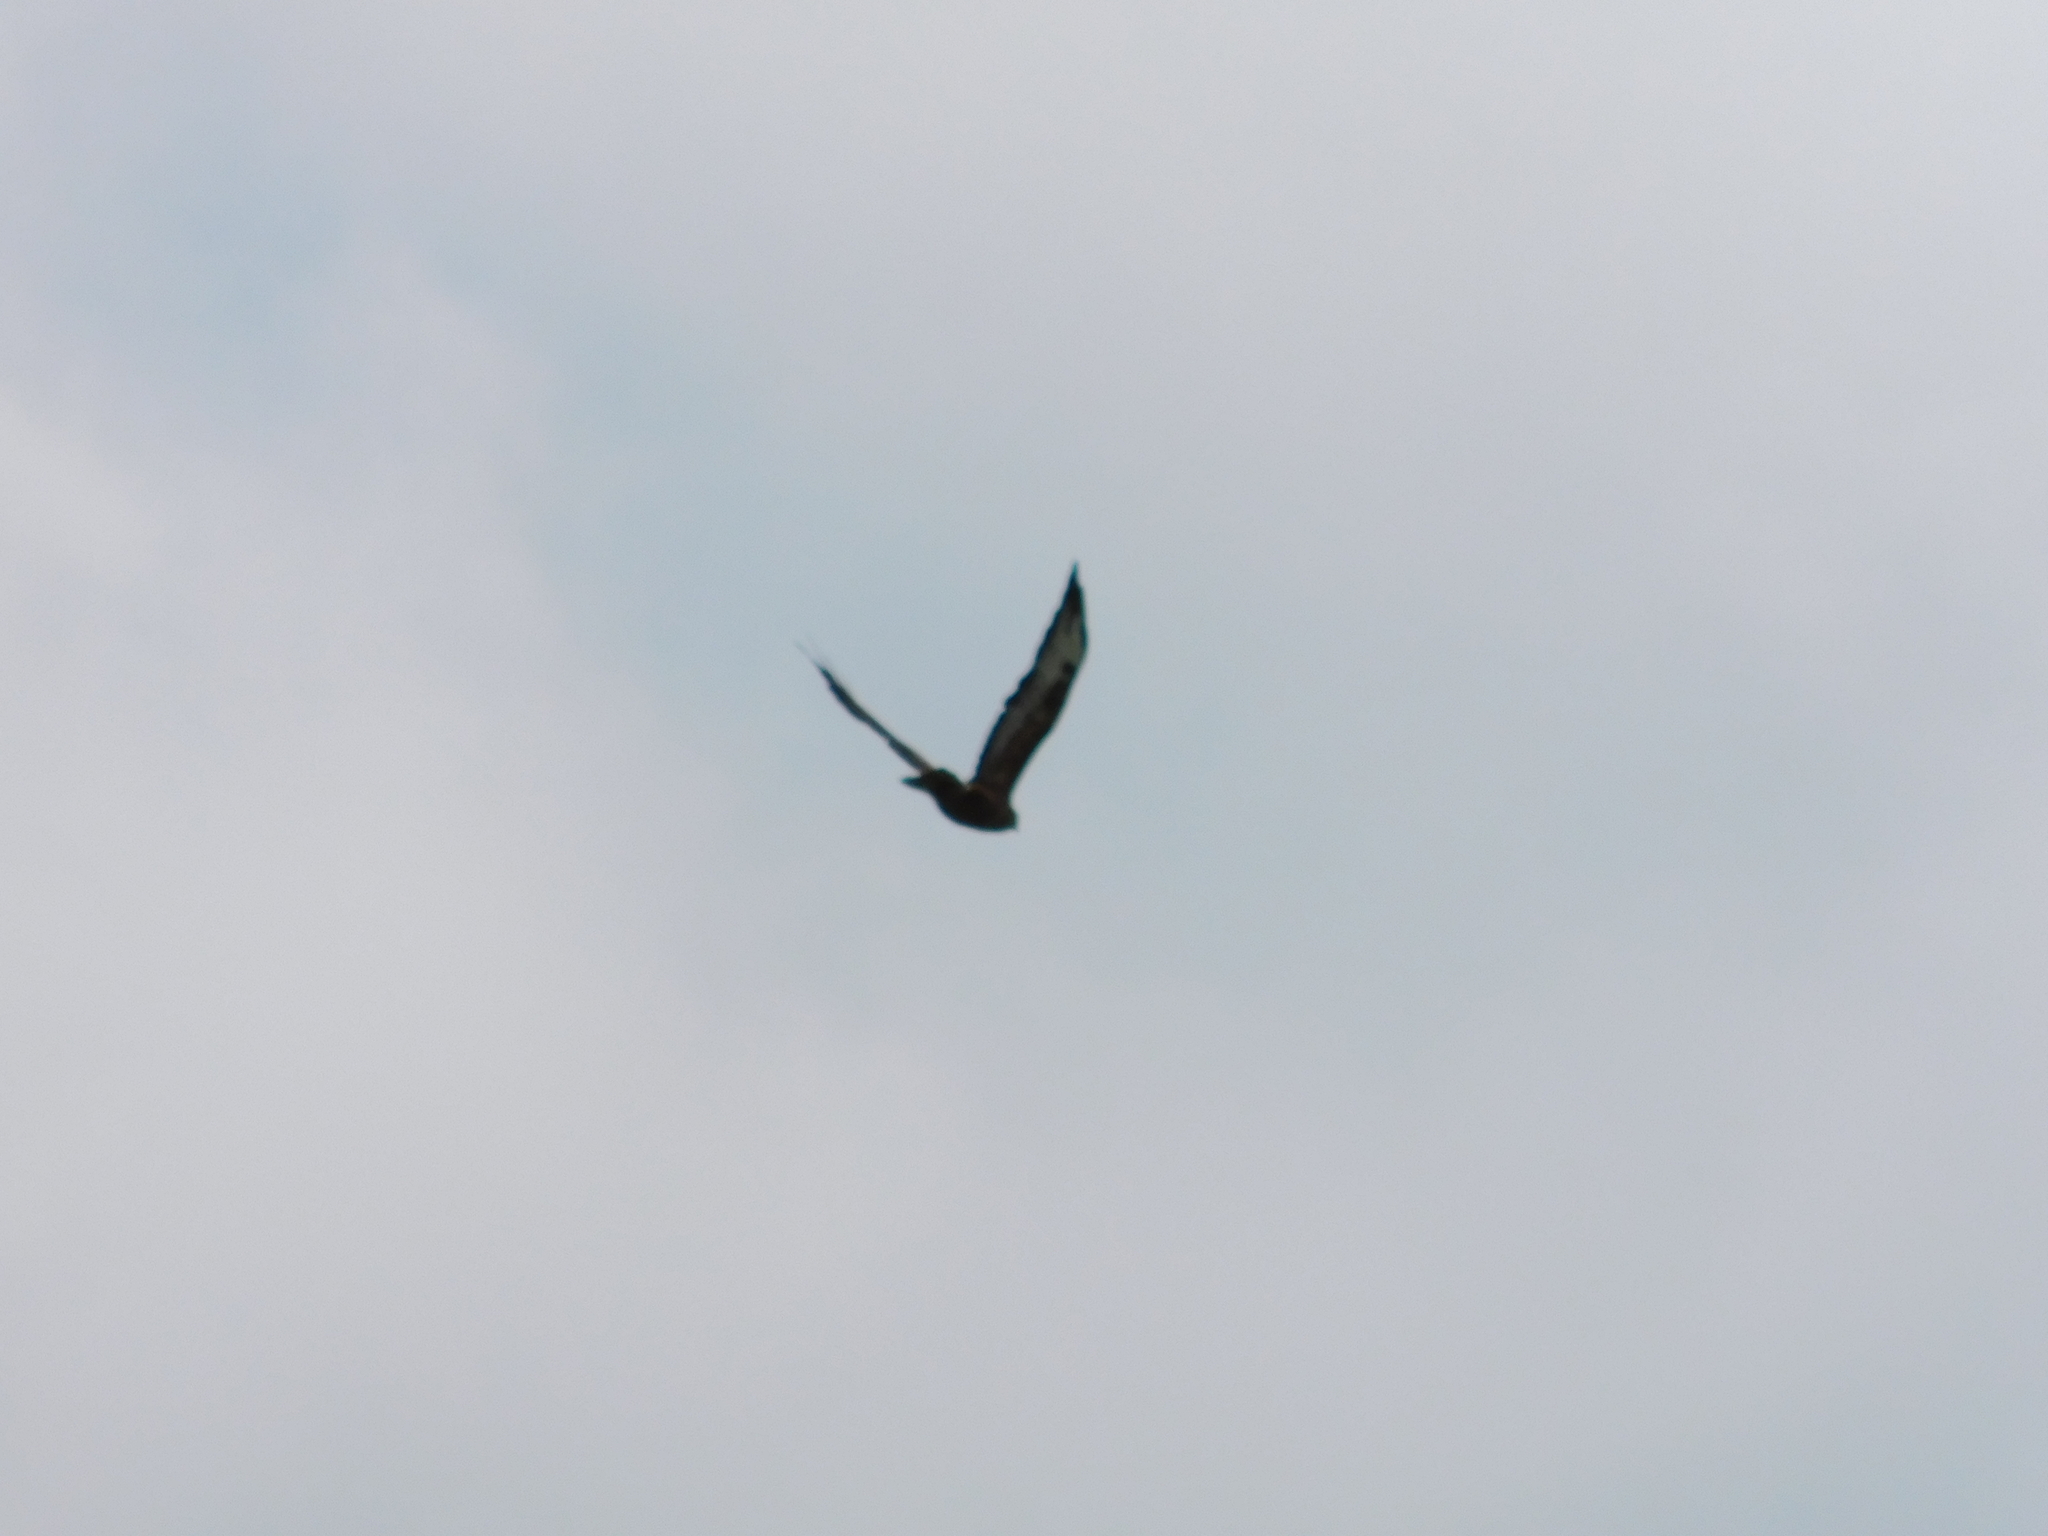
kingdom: Animalia
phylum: Chordata
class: Aves
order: Accipitriformes
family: Accipitridae
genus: Buteo
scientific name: Buteo buteo
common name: Common buzzard
